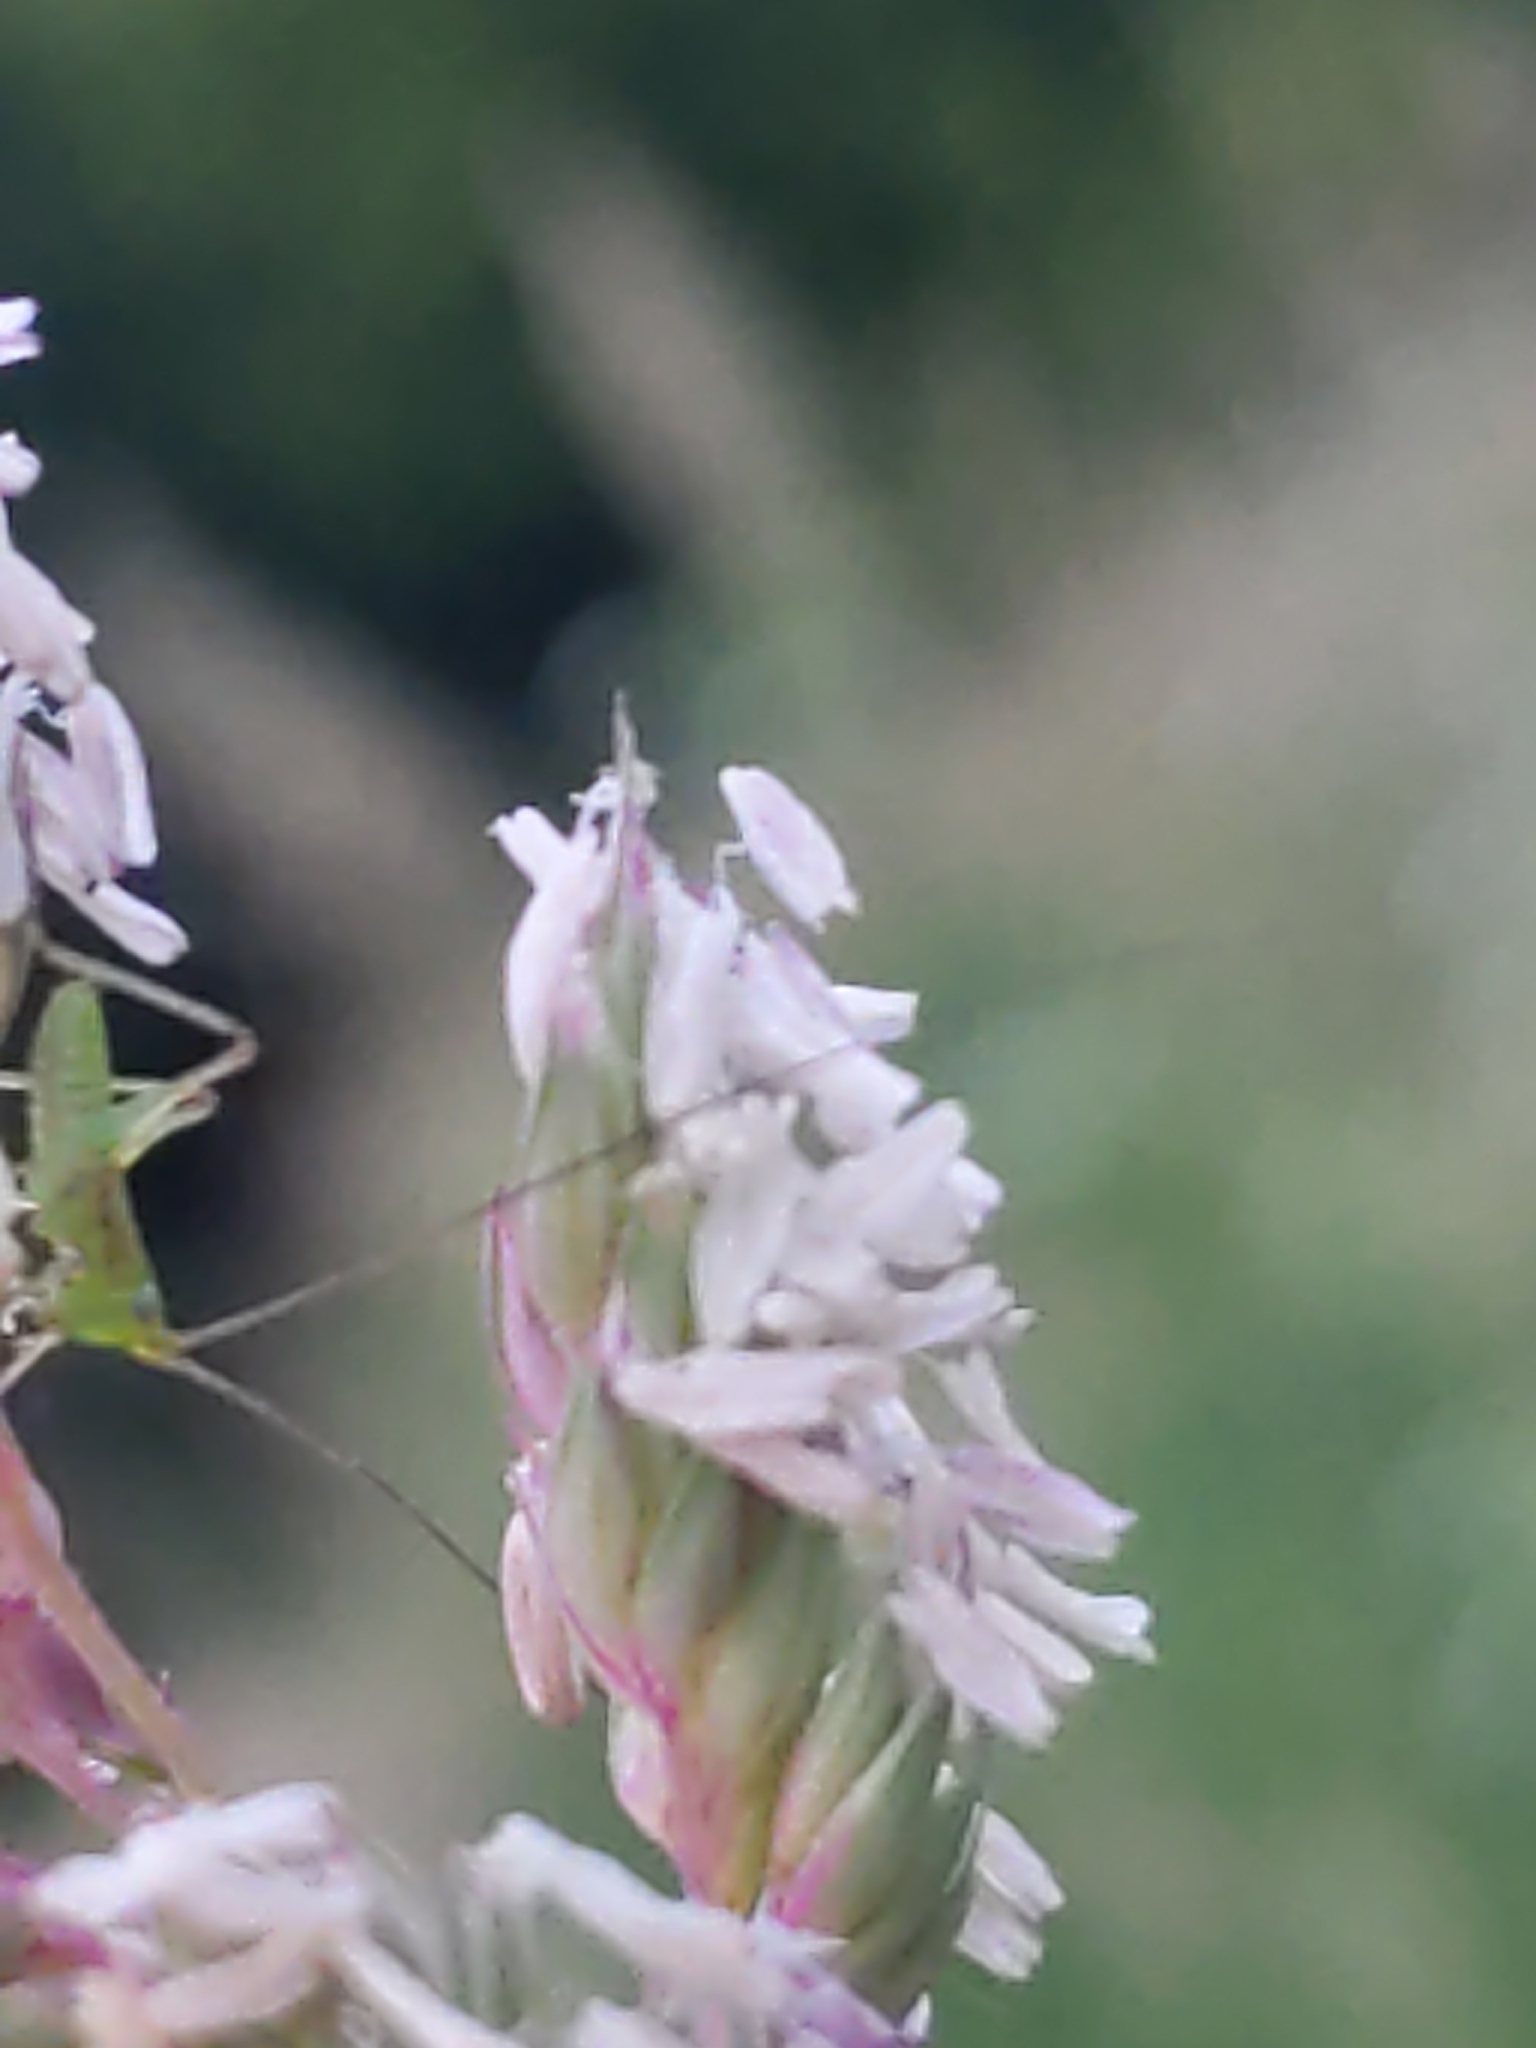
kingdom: Animalia
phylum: Arthropoda
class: Insecta
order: Orthoptera
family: Tettigoniidae
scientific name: Tettigoniidae
